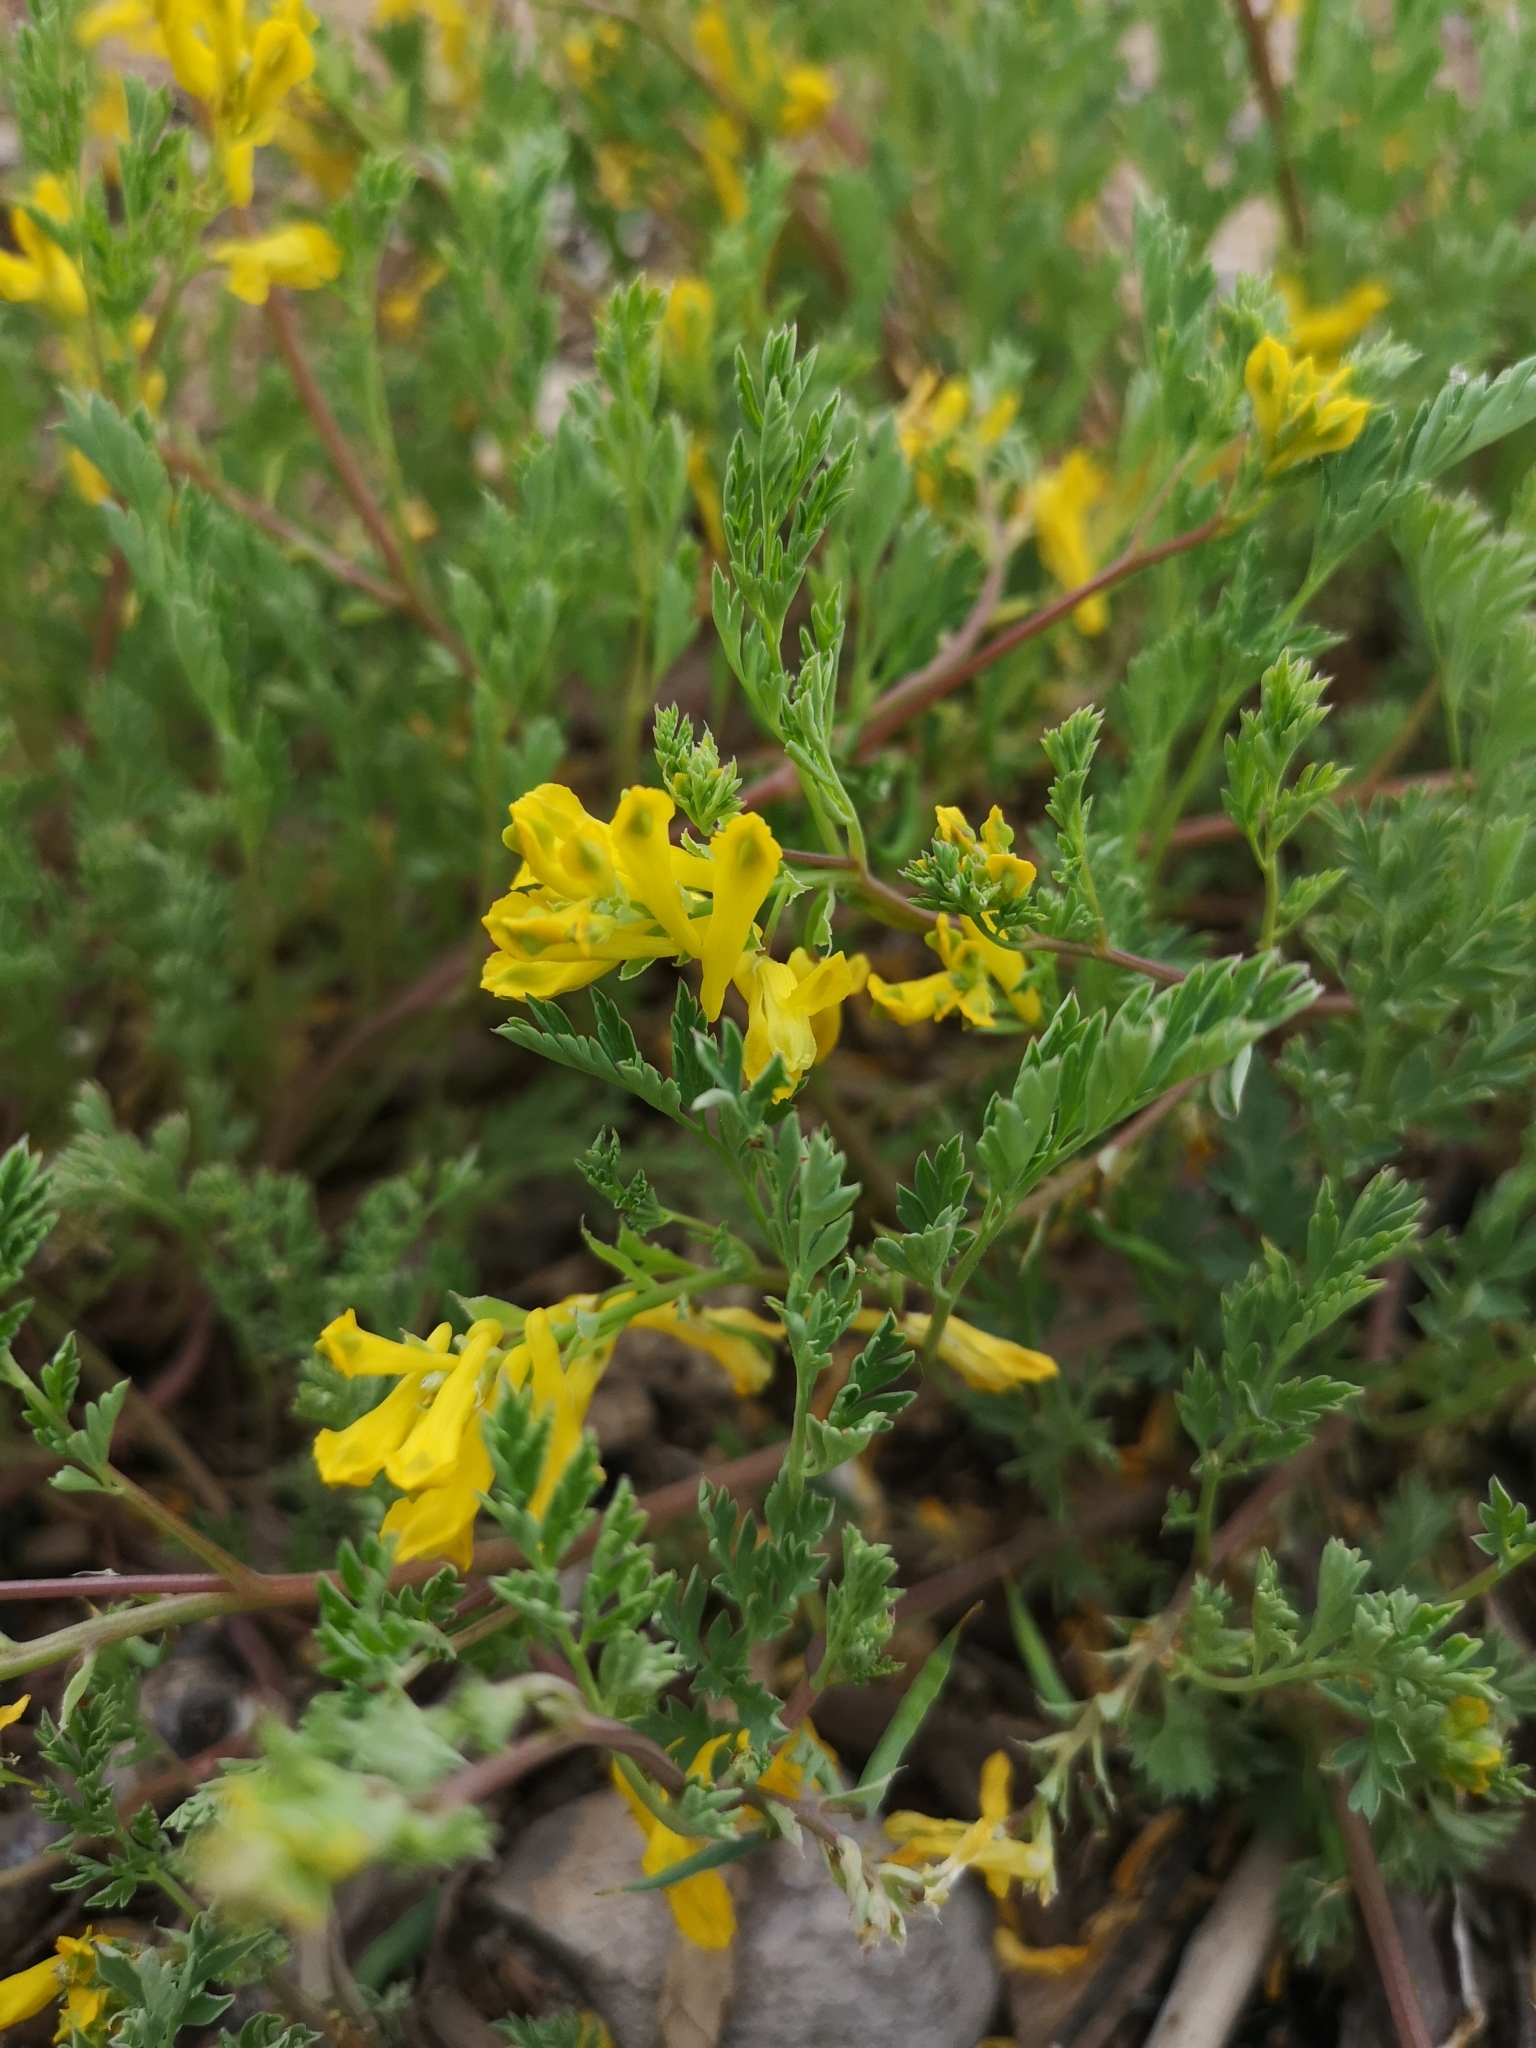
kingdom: Plantae
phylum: Tracheophyta
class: Magnoliopsida
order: Ranunculales
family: Papaveraceae
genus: Corydalis
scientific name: Corydalis aurea
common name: Golden corydalis
